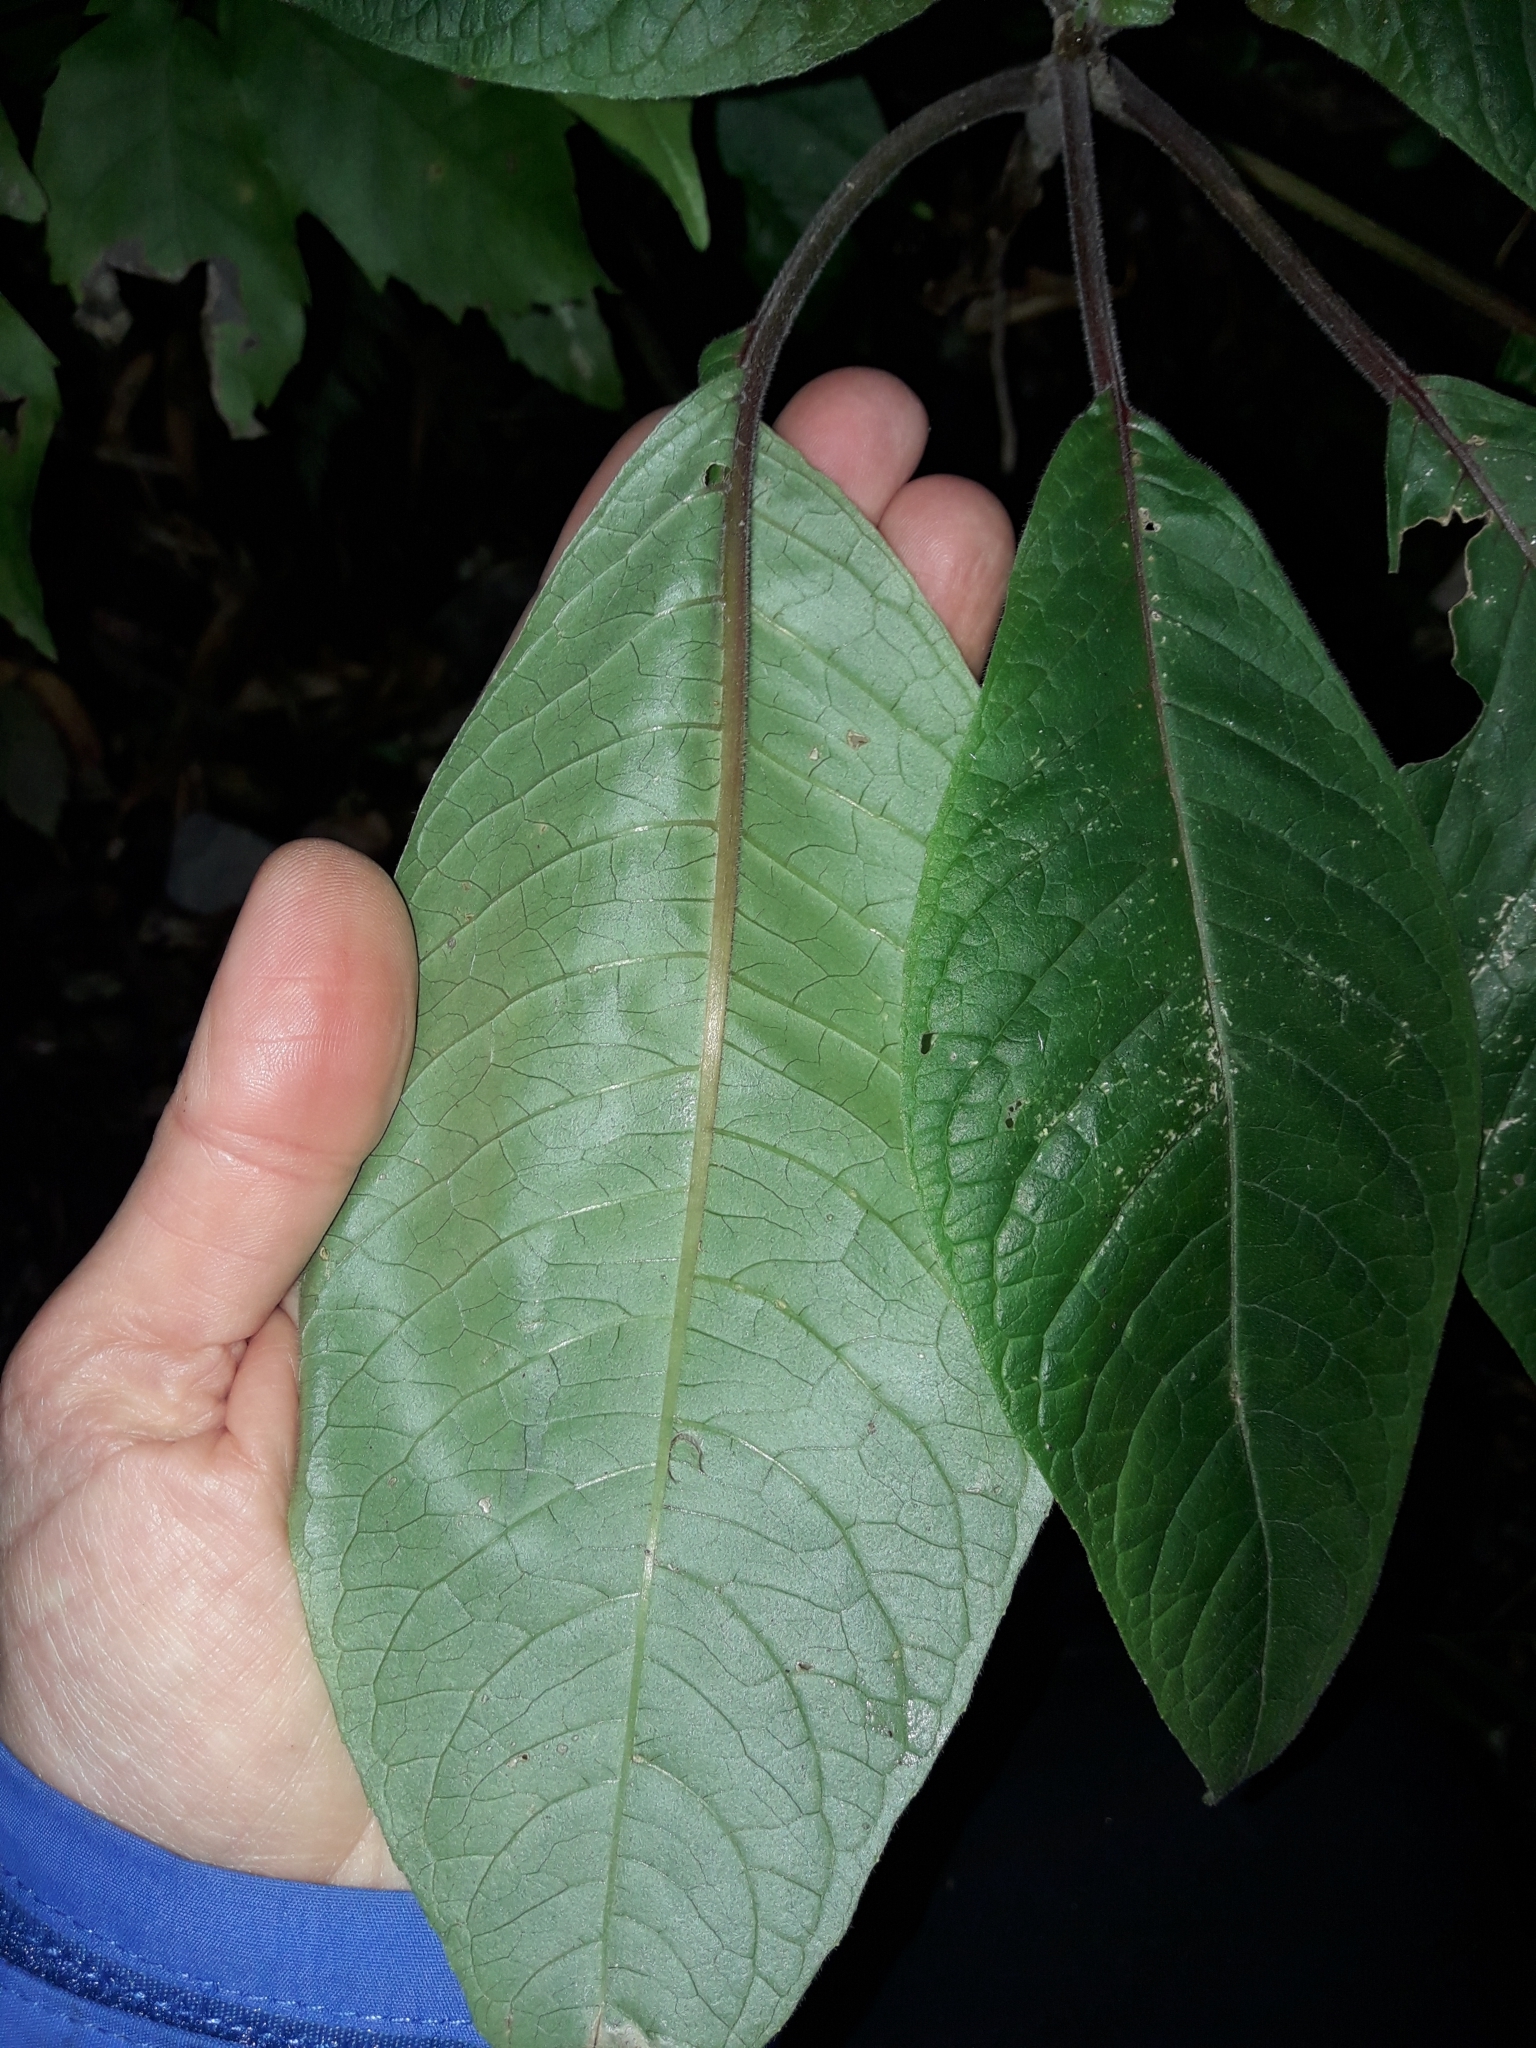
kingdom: Plantae
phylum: Tracheophyta
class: Magnoliopsida
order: Myrtales
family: Onagraceae
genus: Fuchsia
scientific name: Fuchsia boliviana
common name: Bolivian fuchsia
